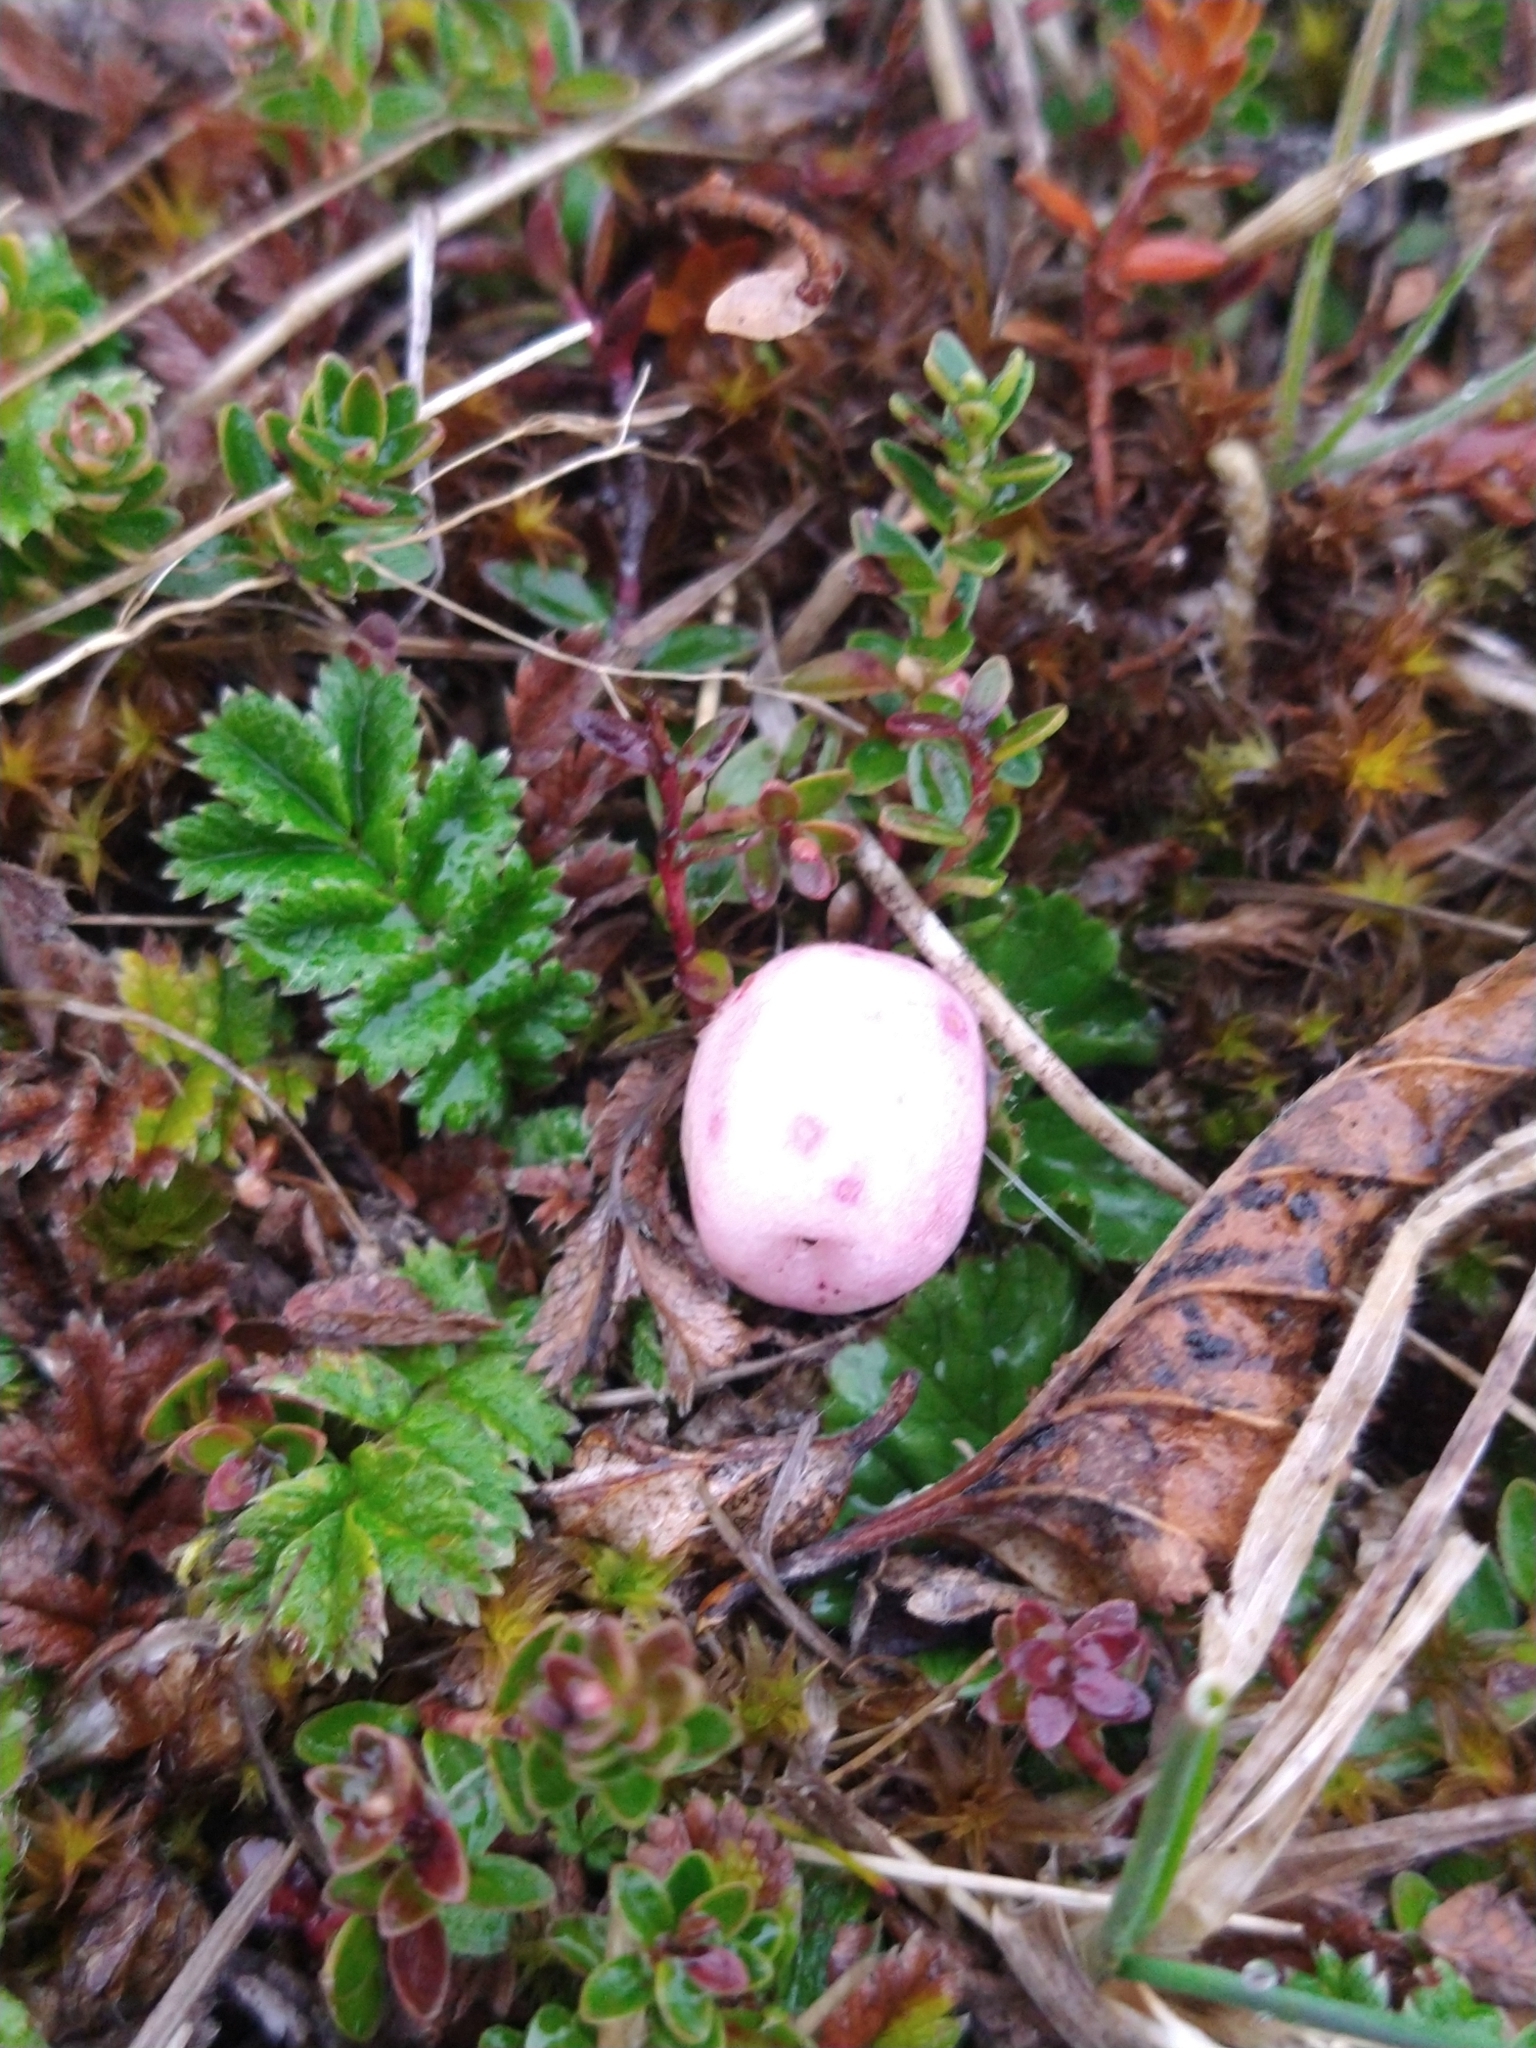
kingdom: Plantae
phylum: Tracheophyta
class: Magnoliopsida
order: Ericales
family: Ericaceae
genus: Gaultheria
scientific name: Gaultheria pumila
